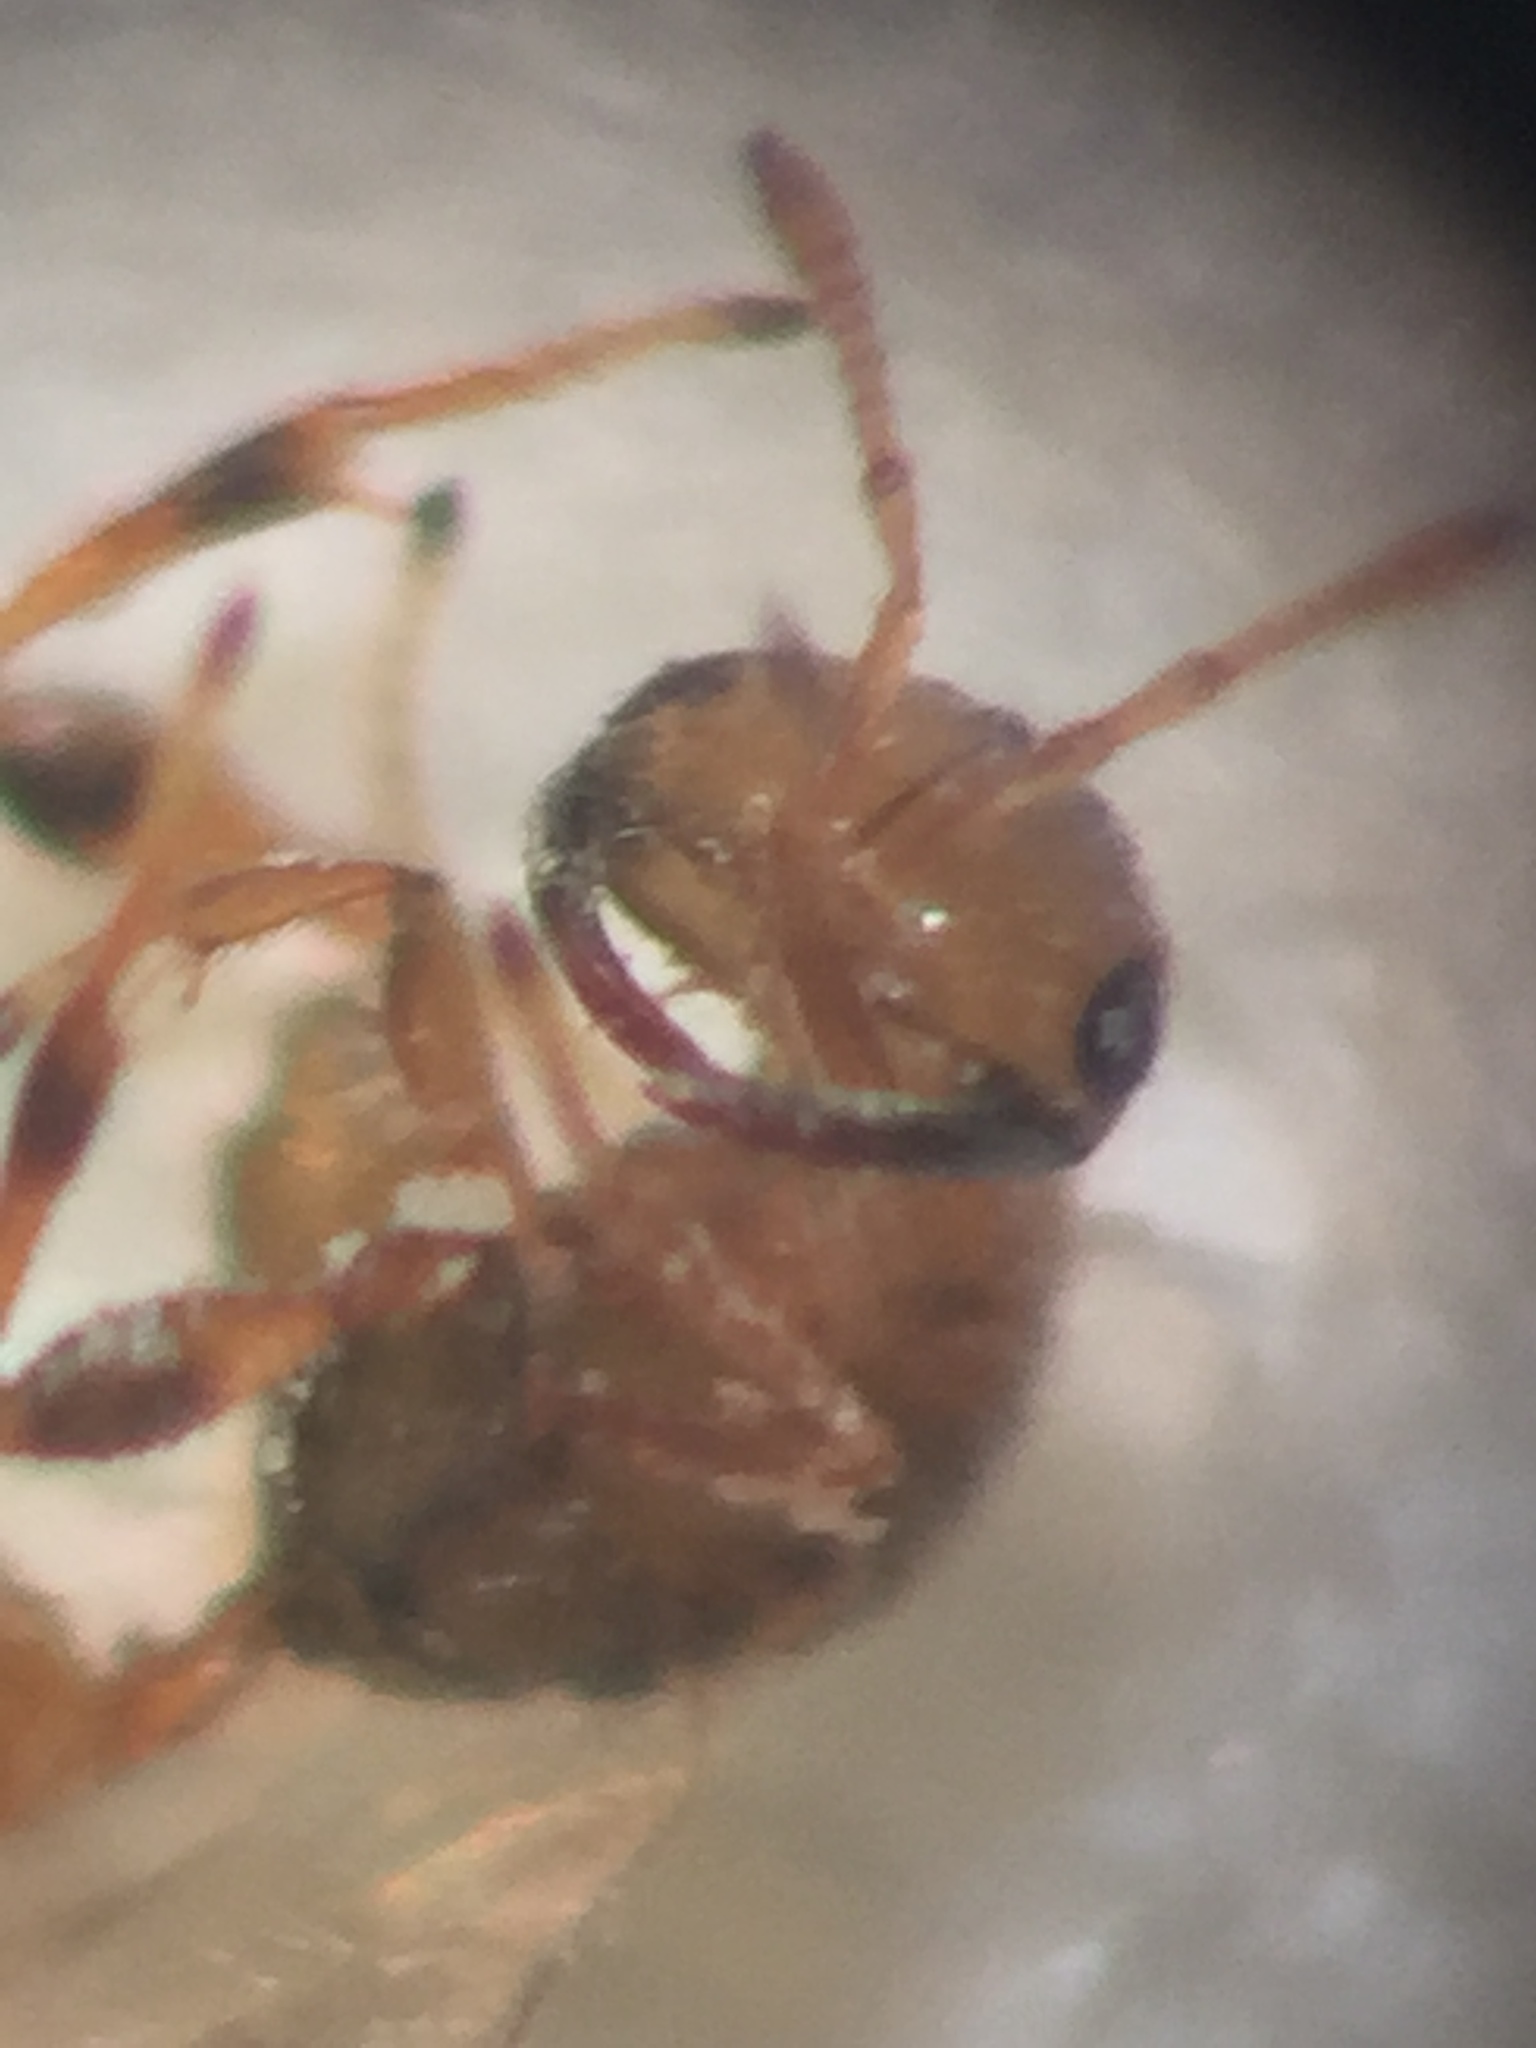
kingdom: Animalia
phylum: Arthropoda
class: Insecta
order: Hymenoptera
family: Agaonidae
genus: Odontofroggatia
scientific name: Odontofroggatia galili
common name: Fig wasp
